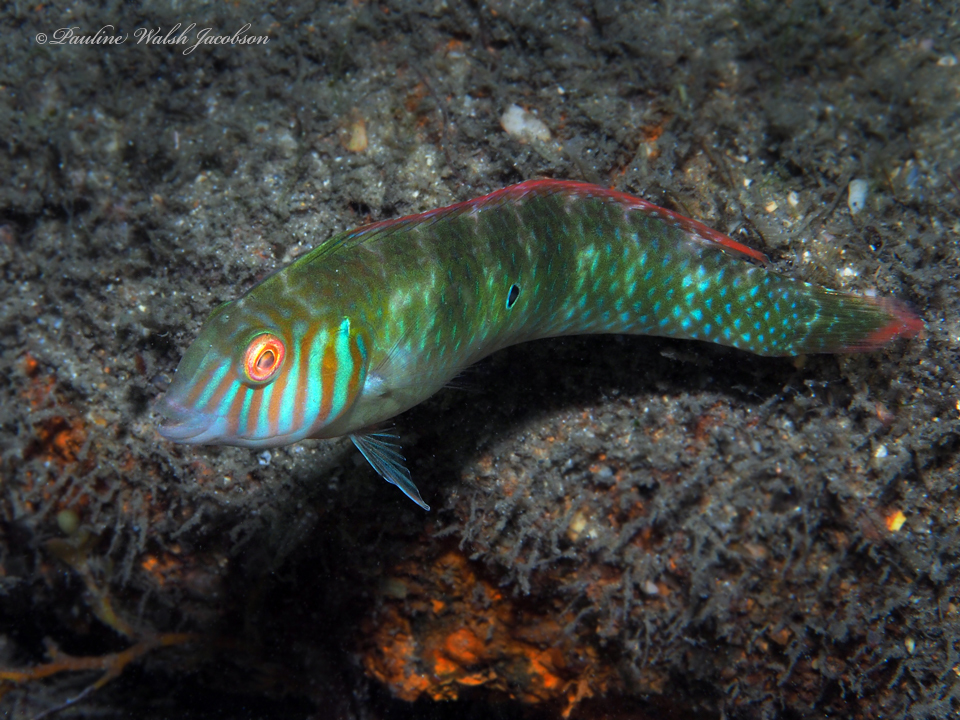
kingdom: Animalia
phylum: Chordata
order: Perciformes
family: Labridae
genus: Xyrichtys
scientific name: Xyrichtys splendens
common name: Green razorfish
